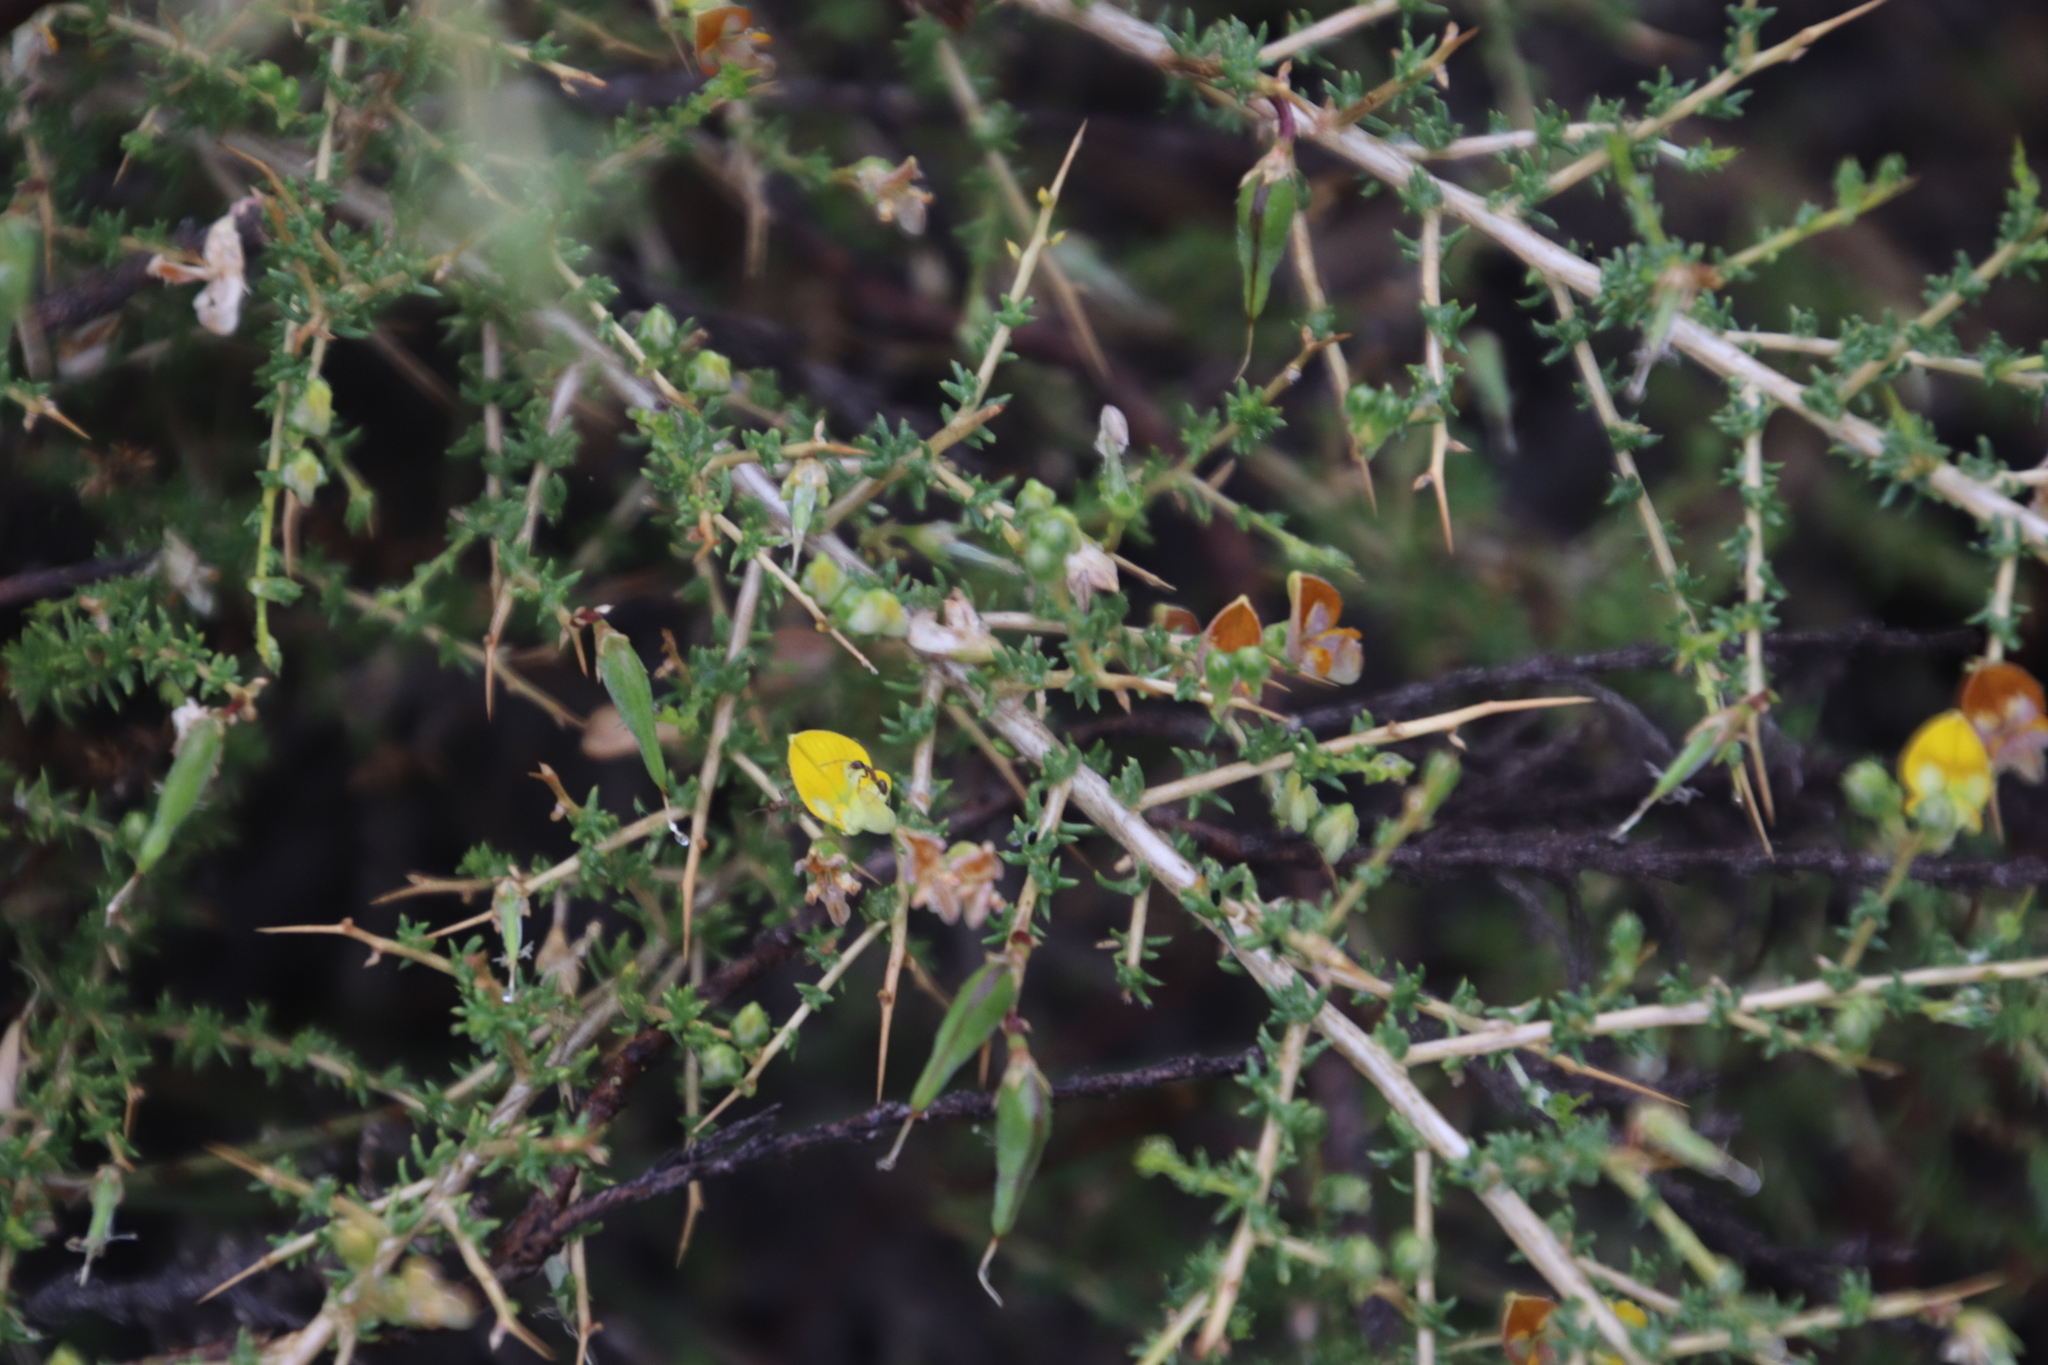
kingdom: Plantae
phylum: Tracheophyta
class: Magnoliopsida
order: Fabales
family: Fabaceae
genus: Aspalathus
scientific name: Aspalathus acuminata
